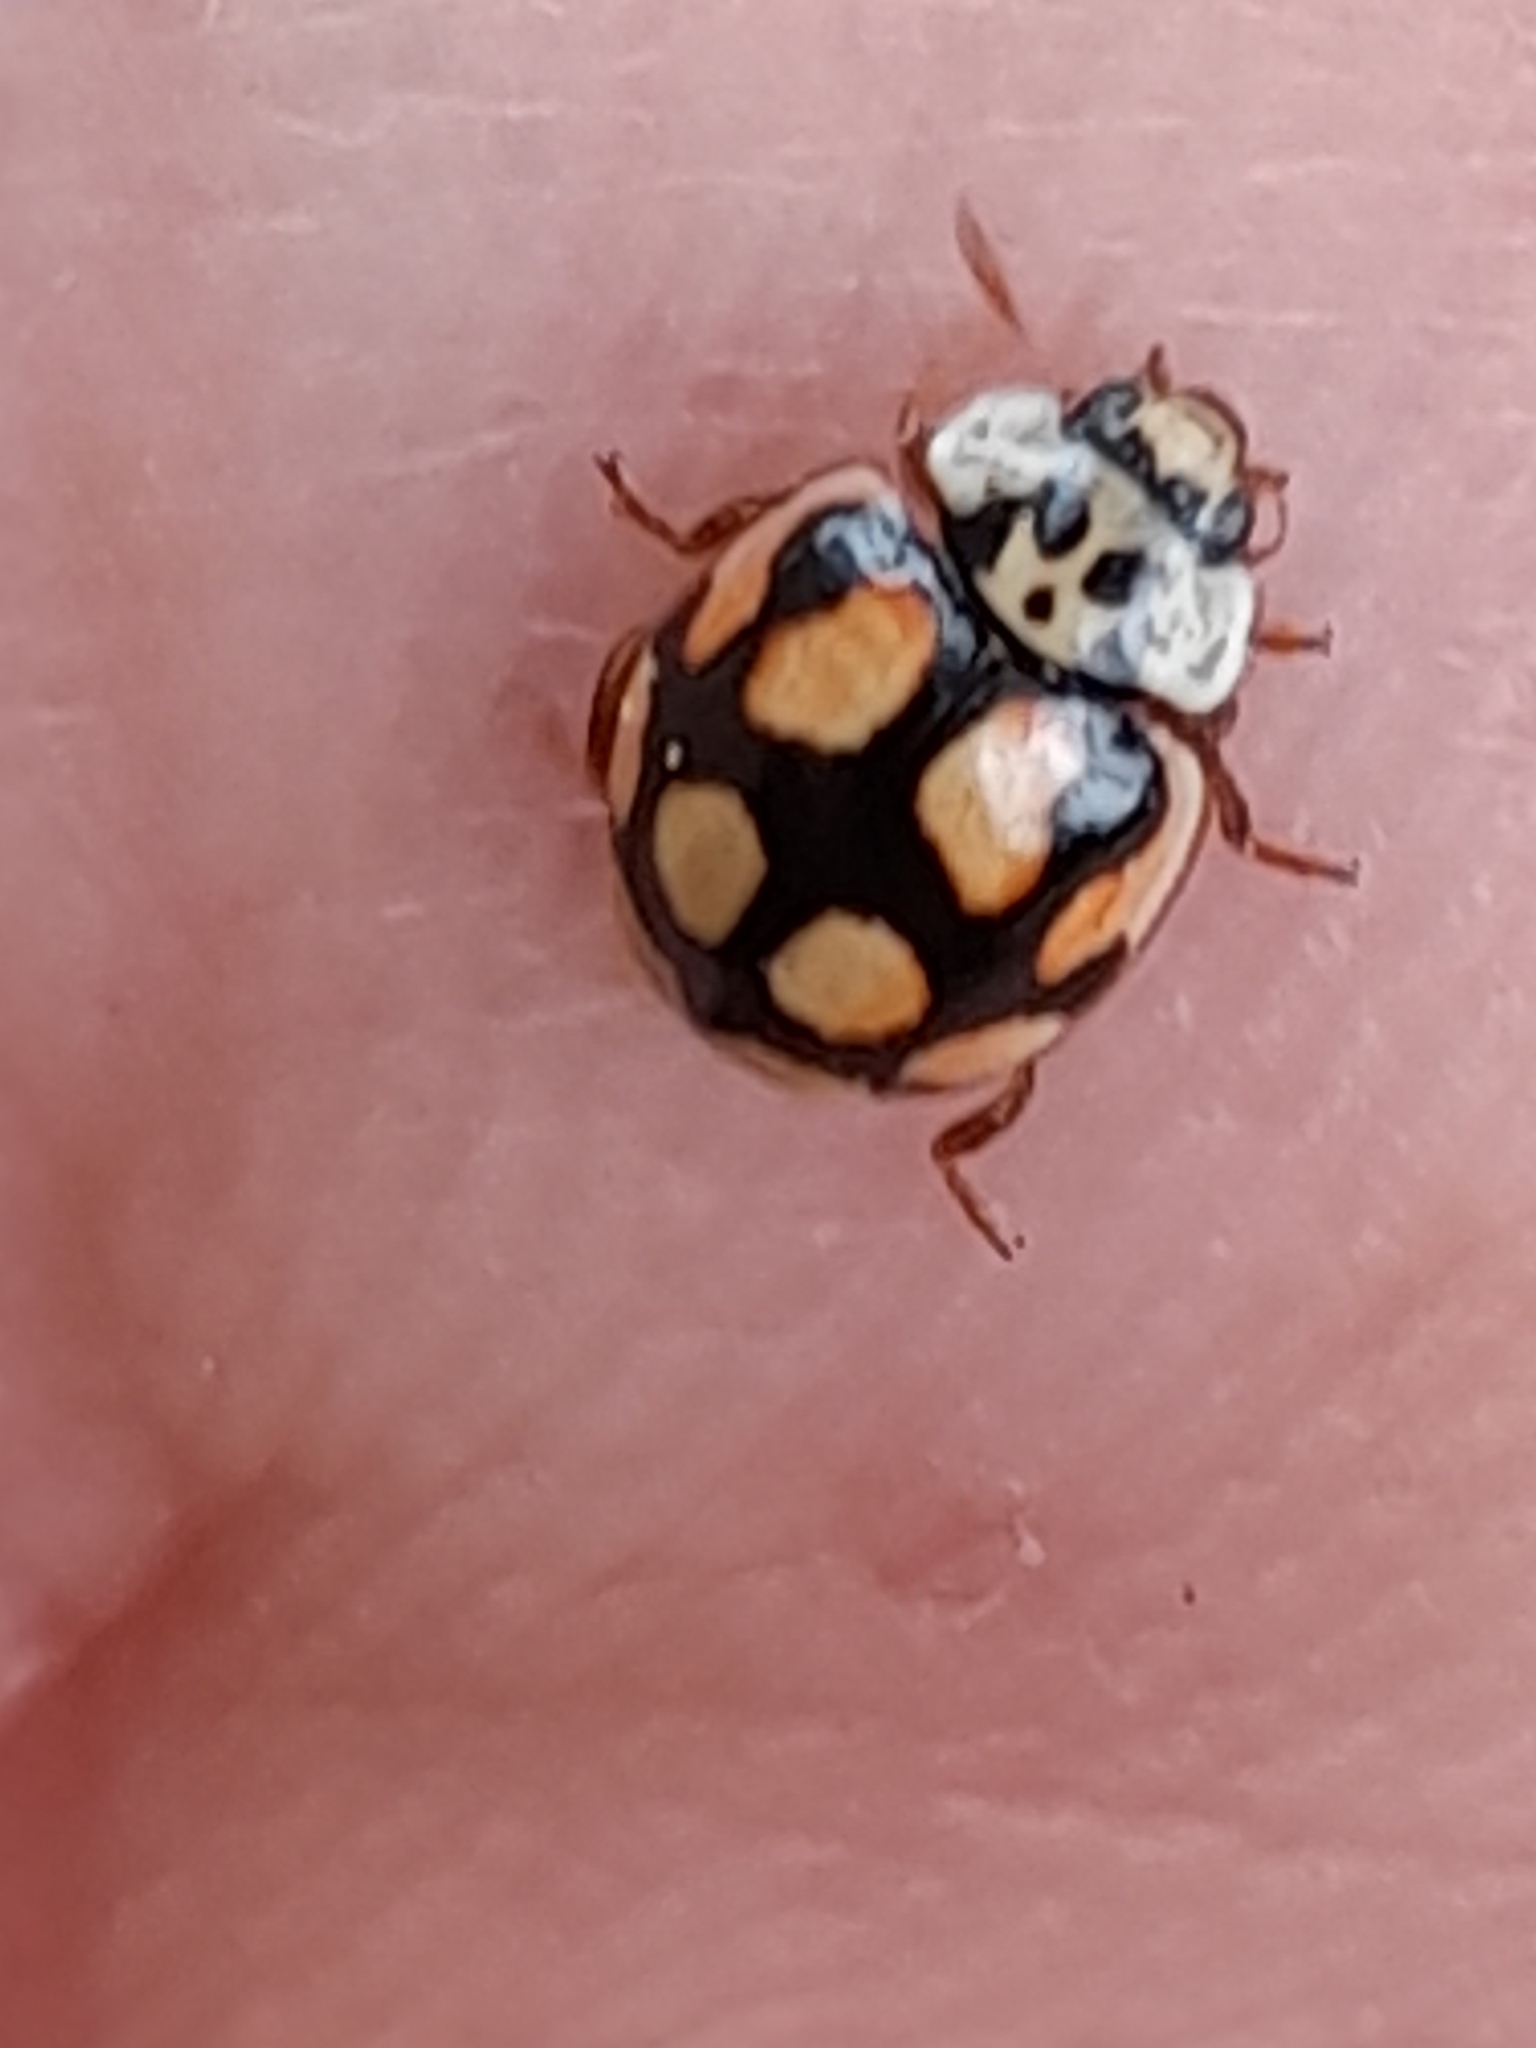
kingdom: Animalia
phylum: Arthropoda
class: Insecta
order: Coleoptera
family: Coccinellidae
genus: Adalia
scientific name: Adalia decempunctata
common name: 10-spot ladybird
